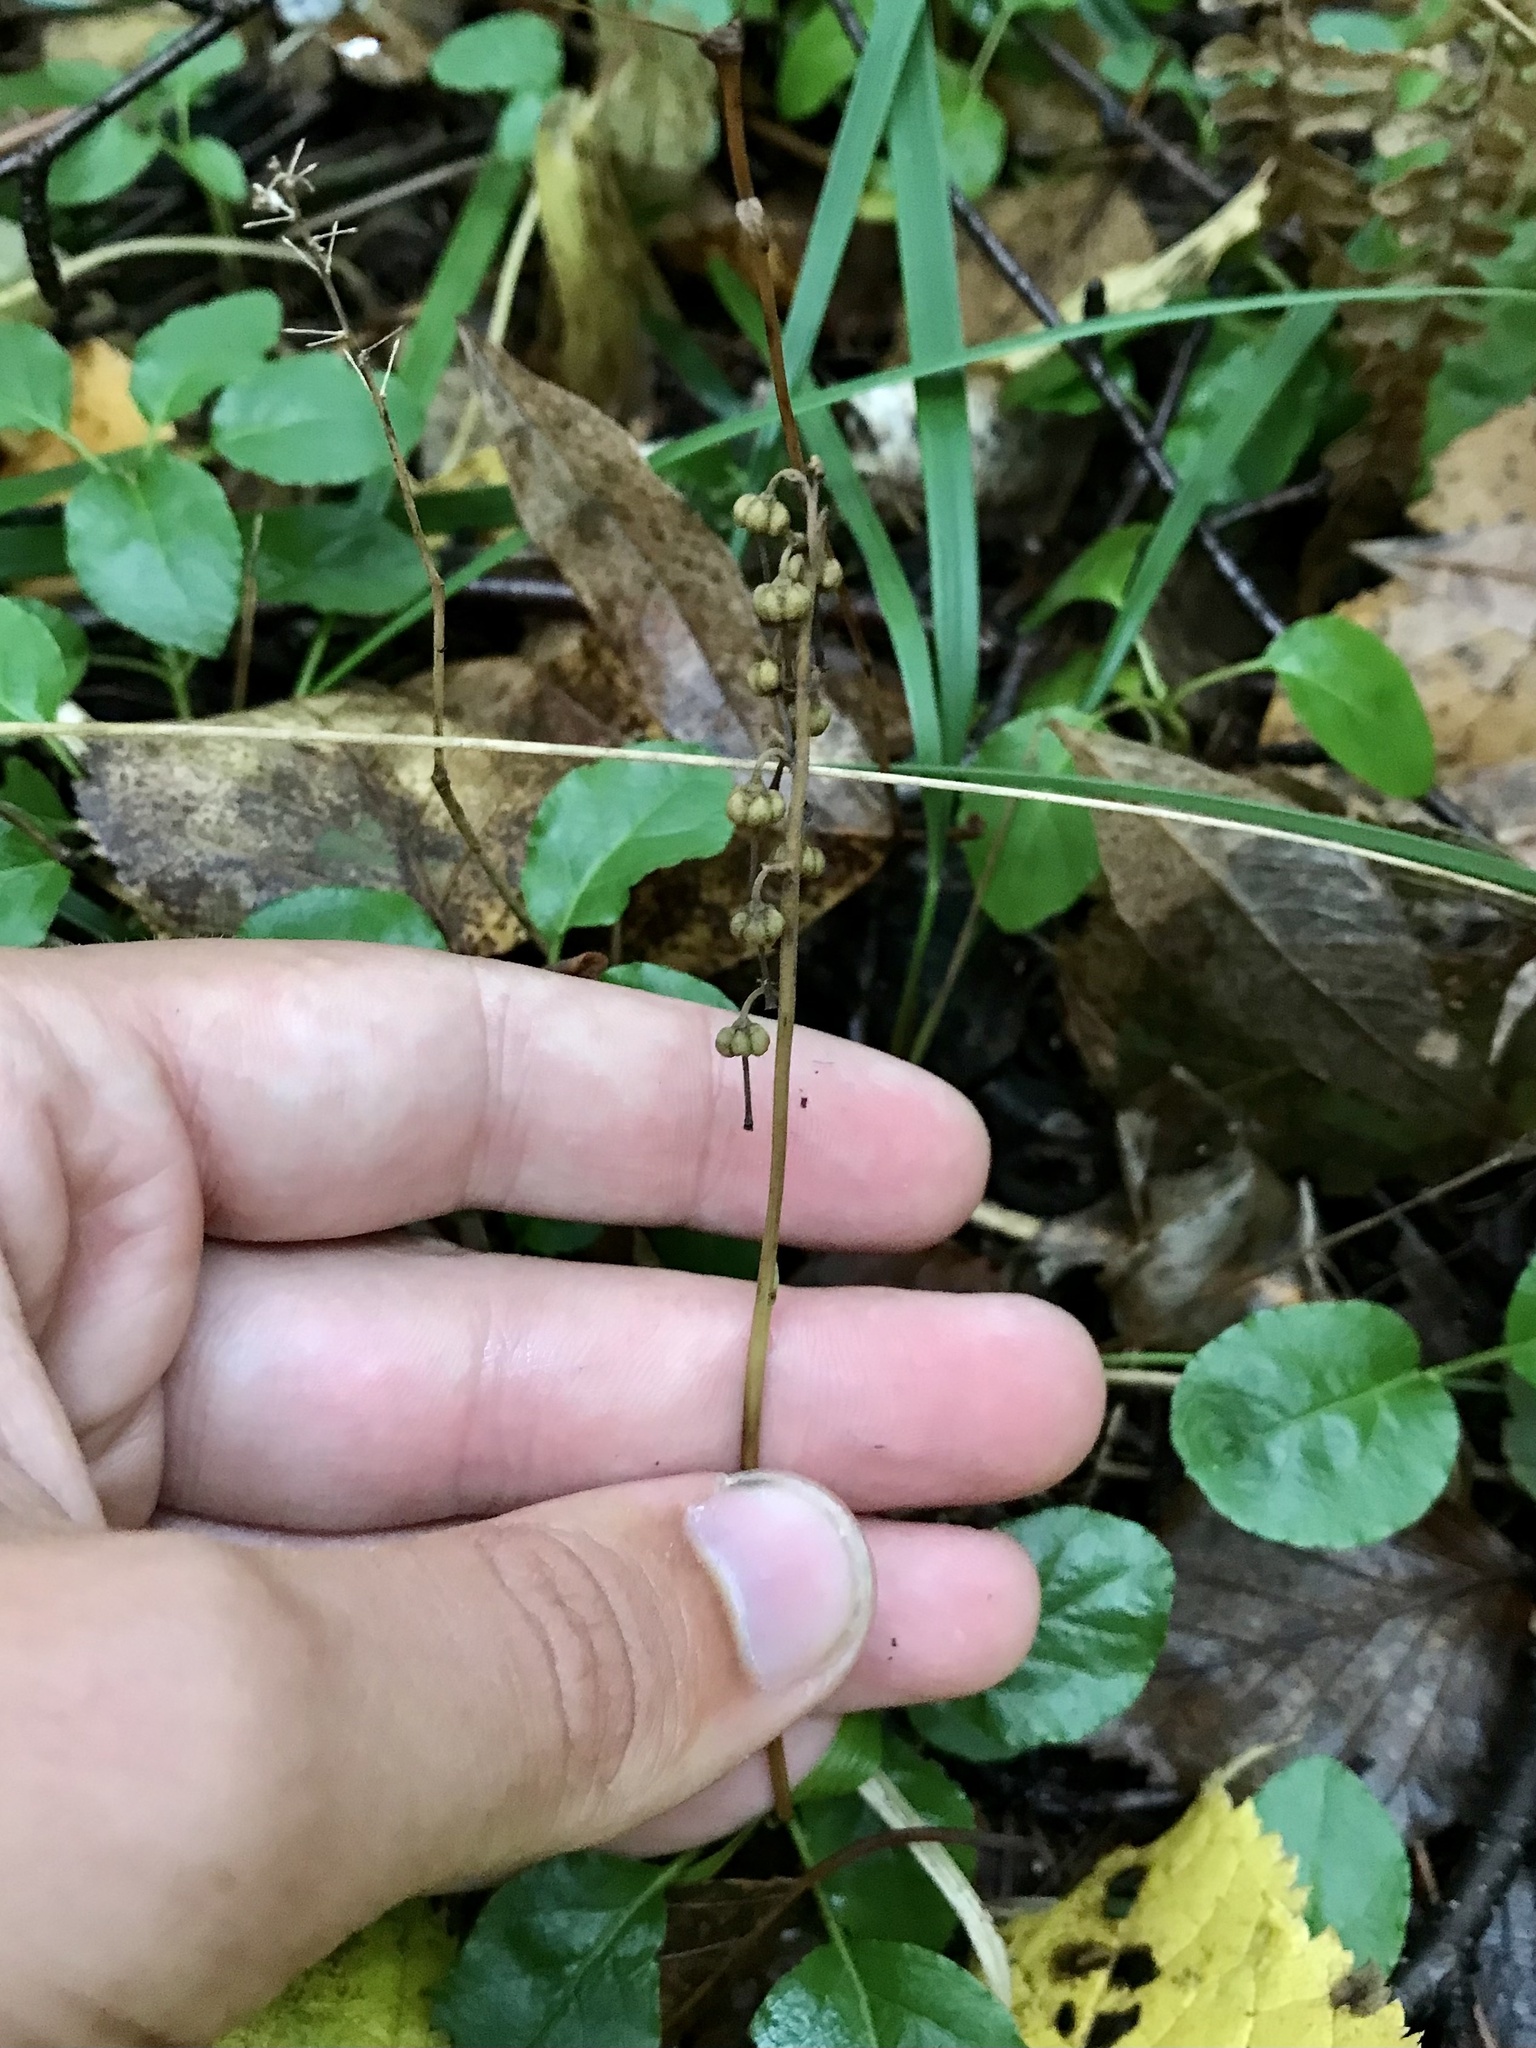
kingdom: Plantae
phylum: Tracheophyta
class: Magnoliopsida
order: Ericales
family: Ericaceae
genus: Orthilia
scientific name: Orthilia secunda
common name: One-sided orthilia
